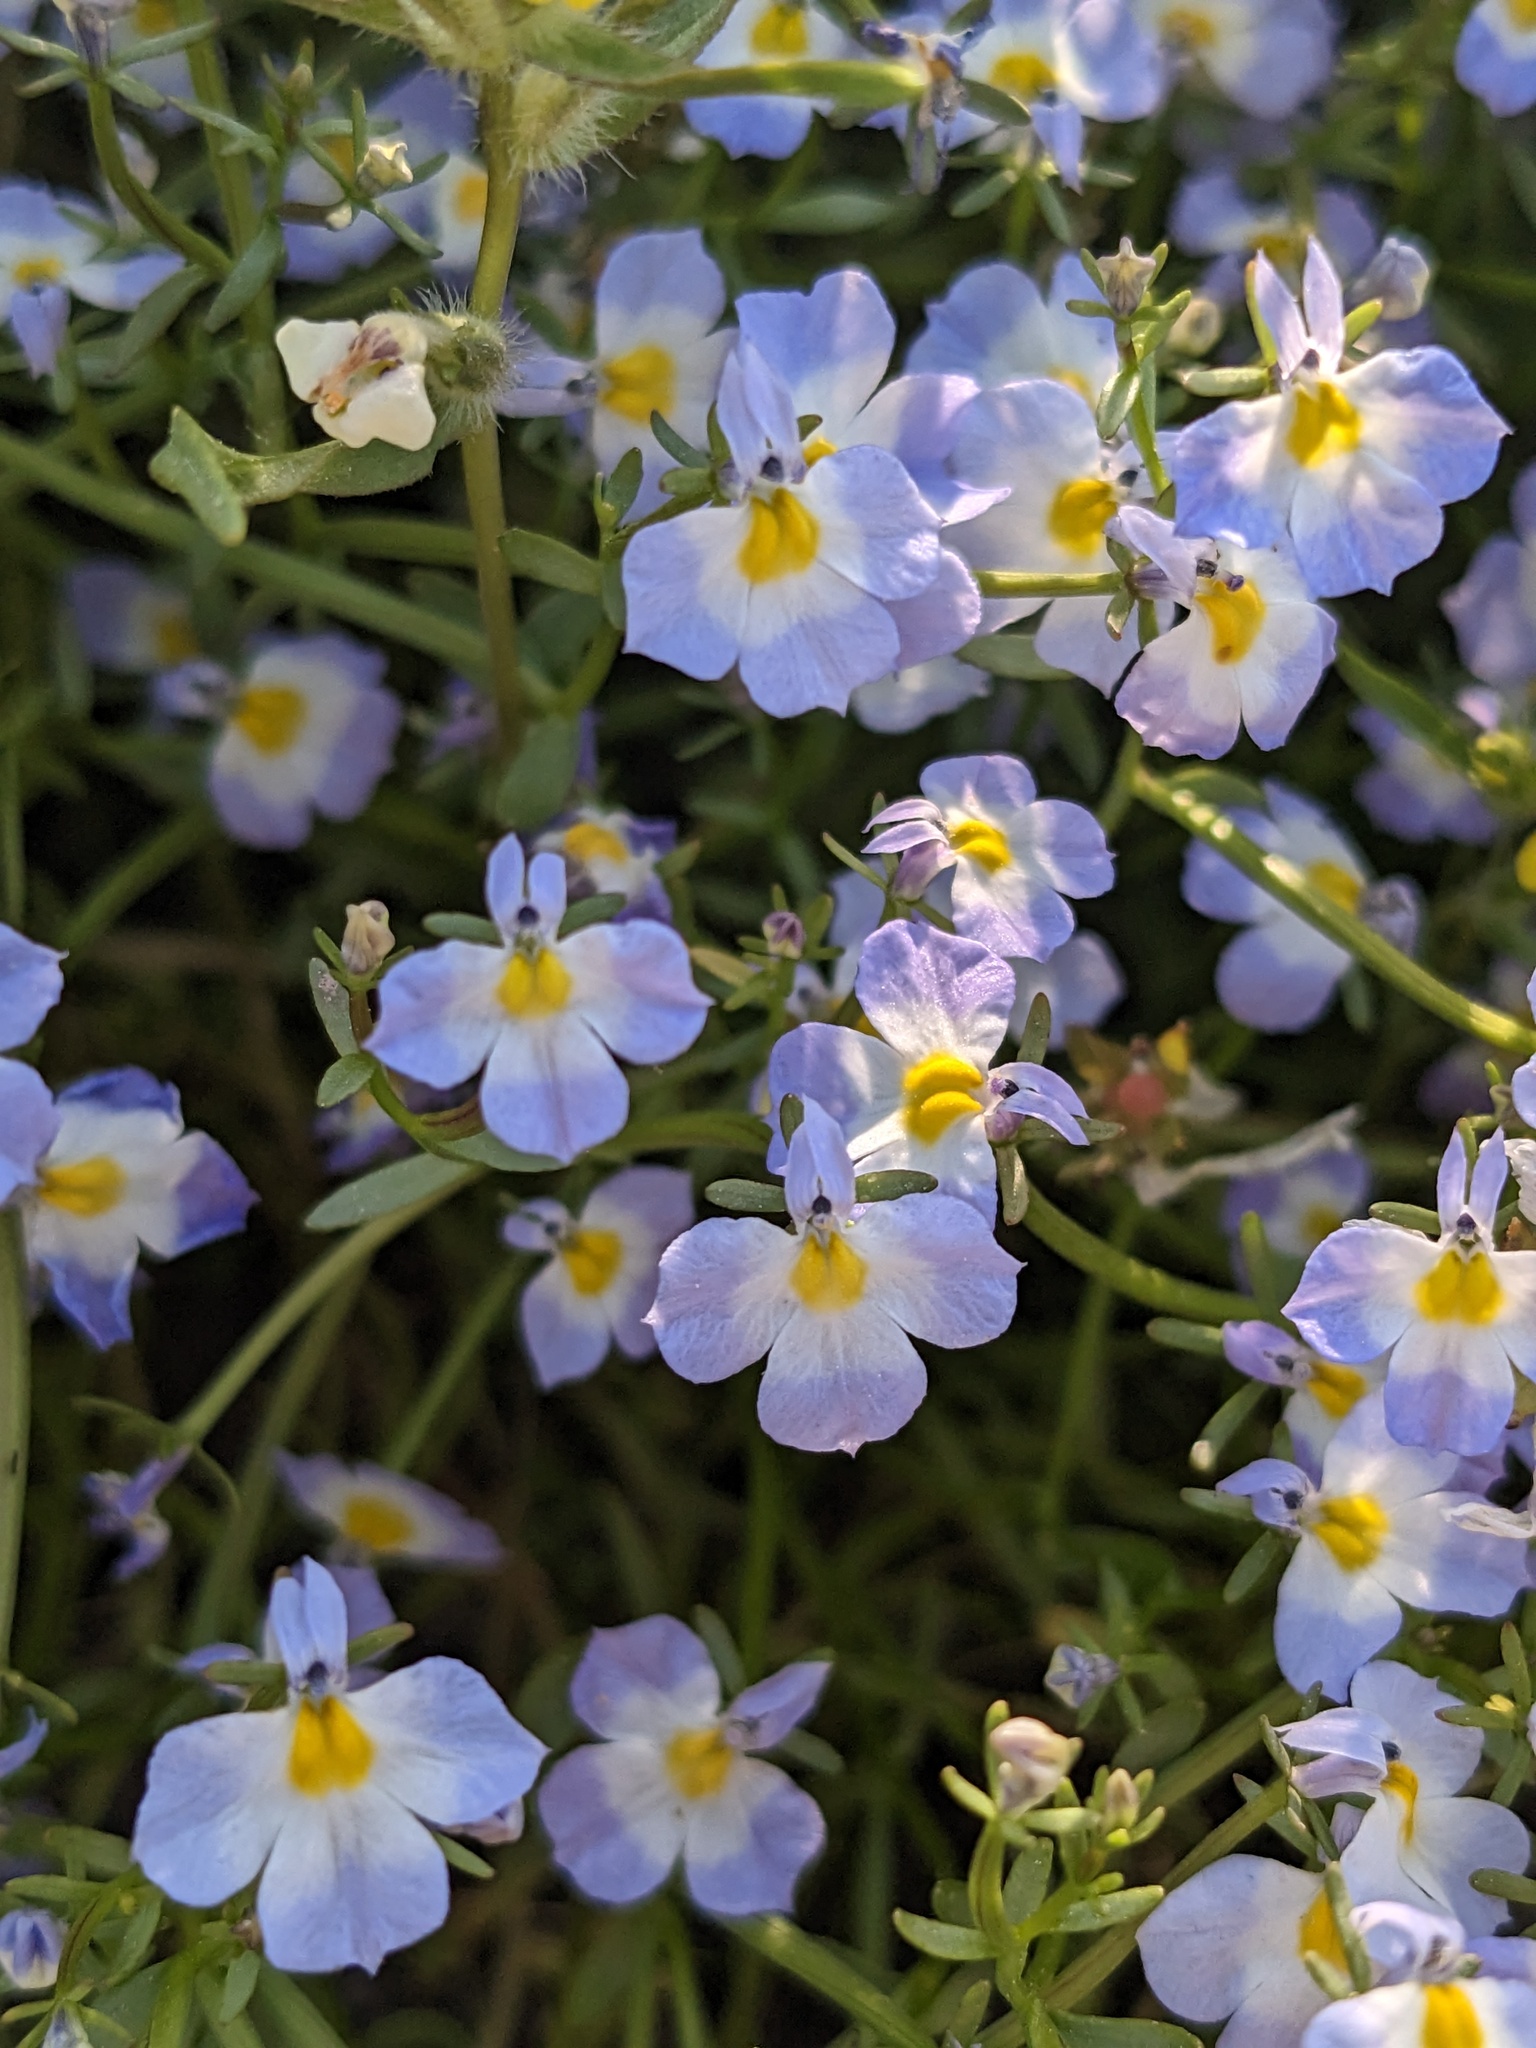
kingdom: Plantae
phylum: Tracheophyta
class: Magnoliopsida
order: Asterales
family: Campanulaceae
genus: Downingia
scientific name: Downingia cuspidata
